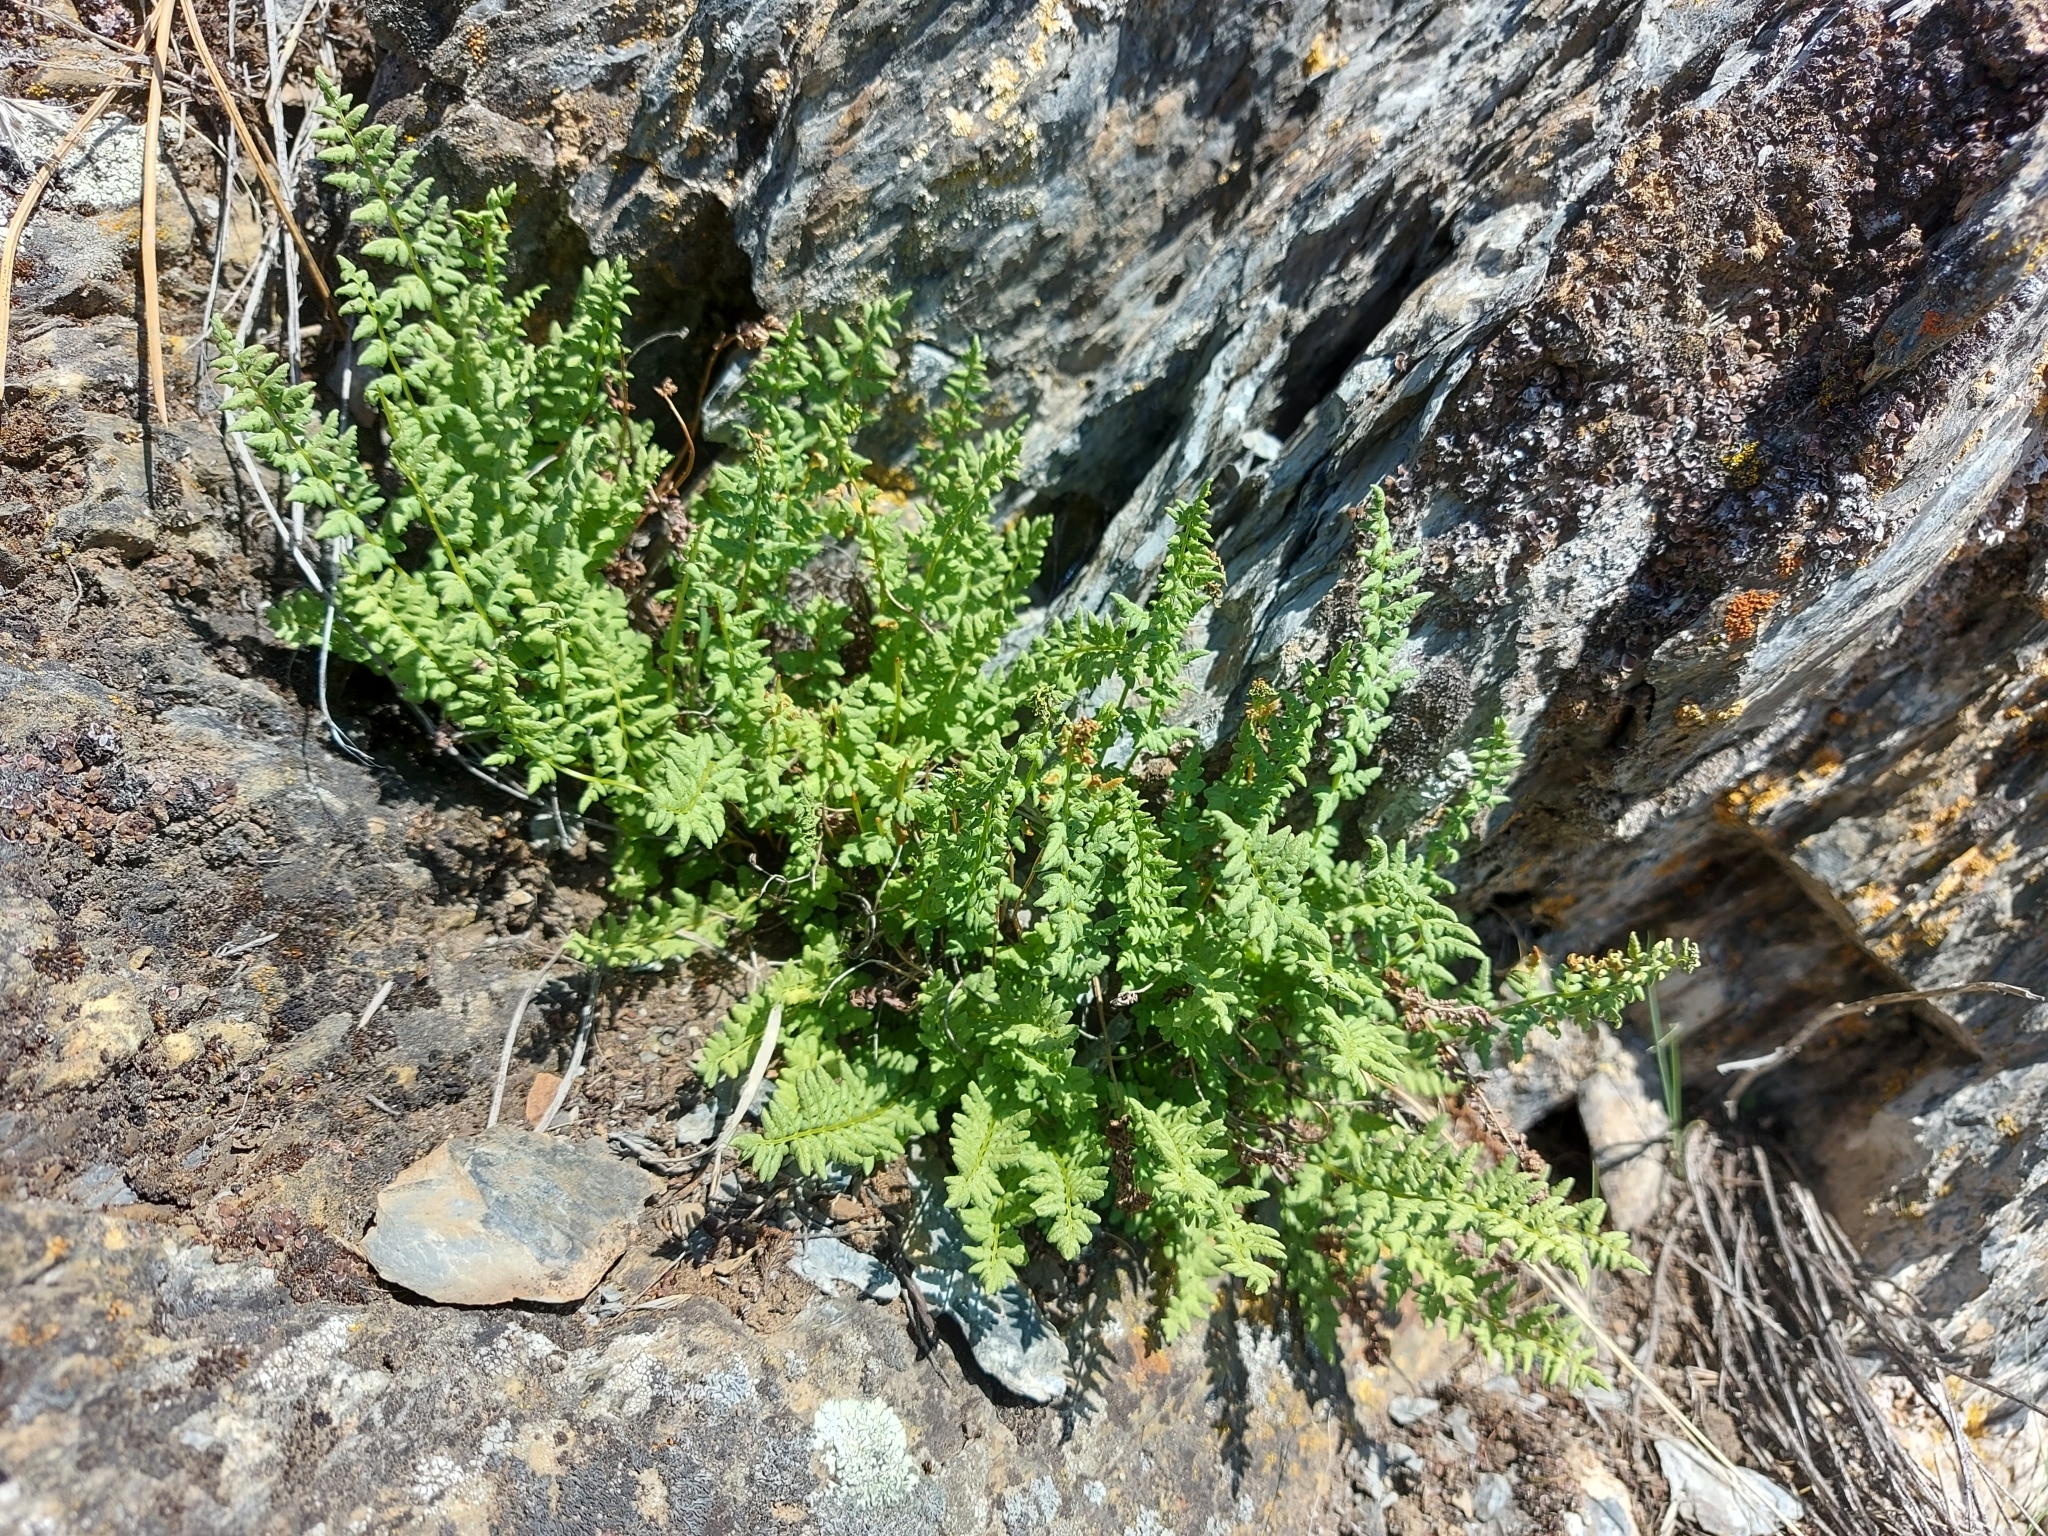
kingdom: Plantae
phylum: Tracheophyta
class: Polypodiopsida
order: Polypodiales
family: Woodsiaceae
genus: Physematium
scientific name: Physematium oreganum
